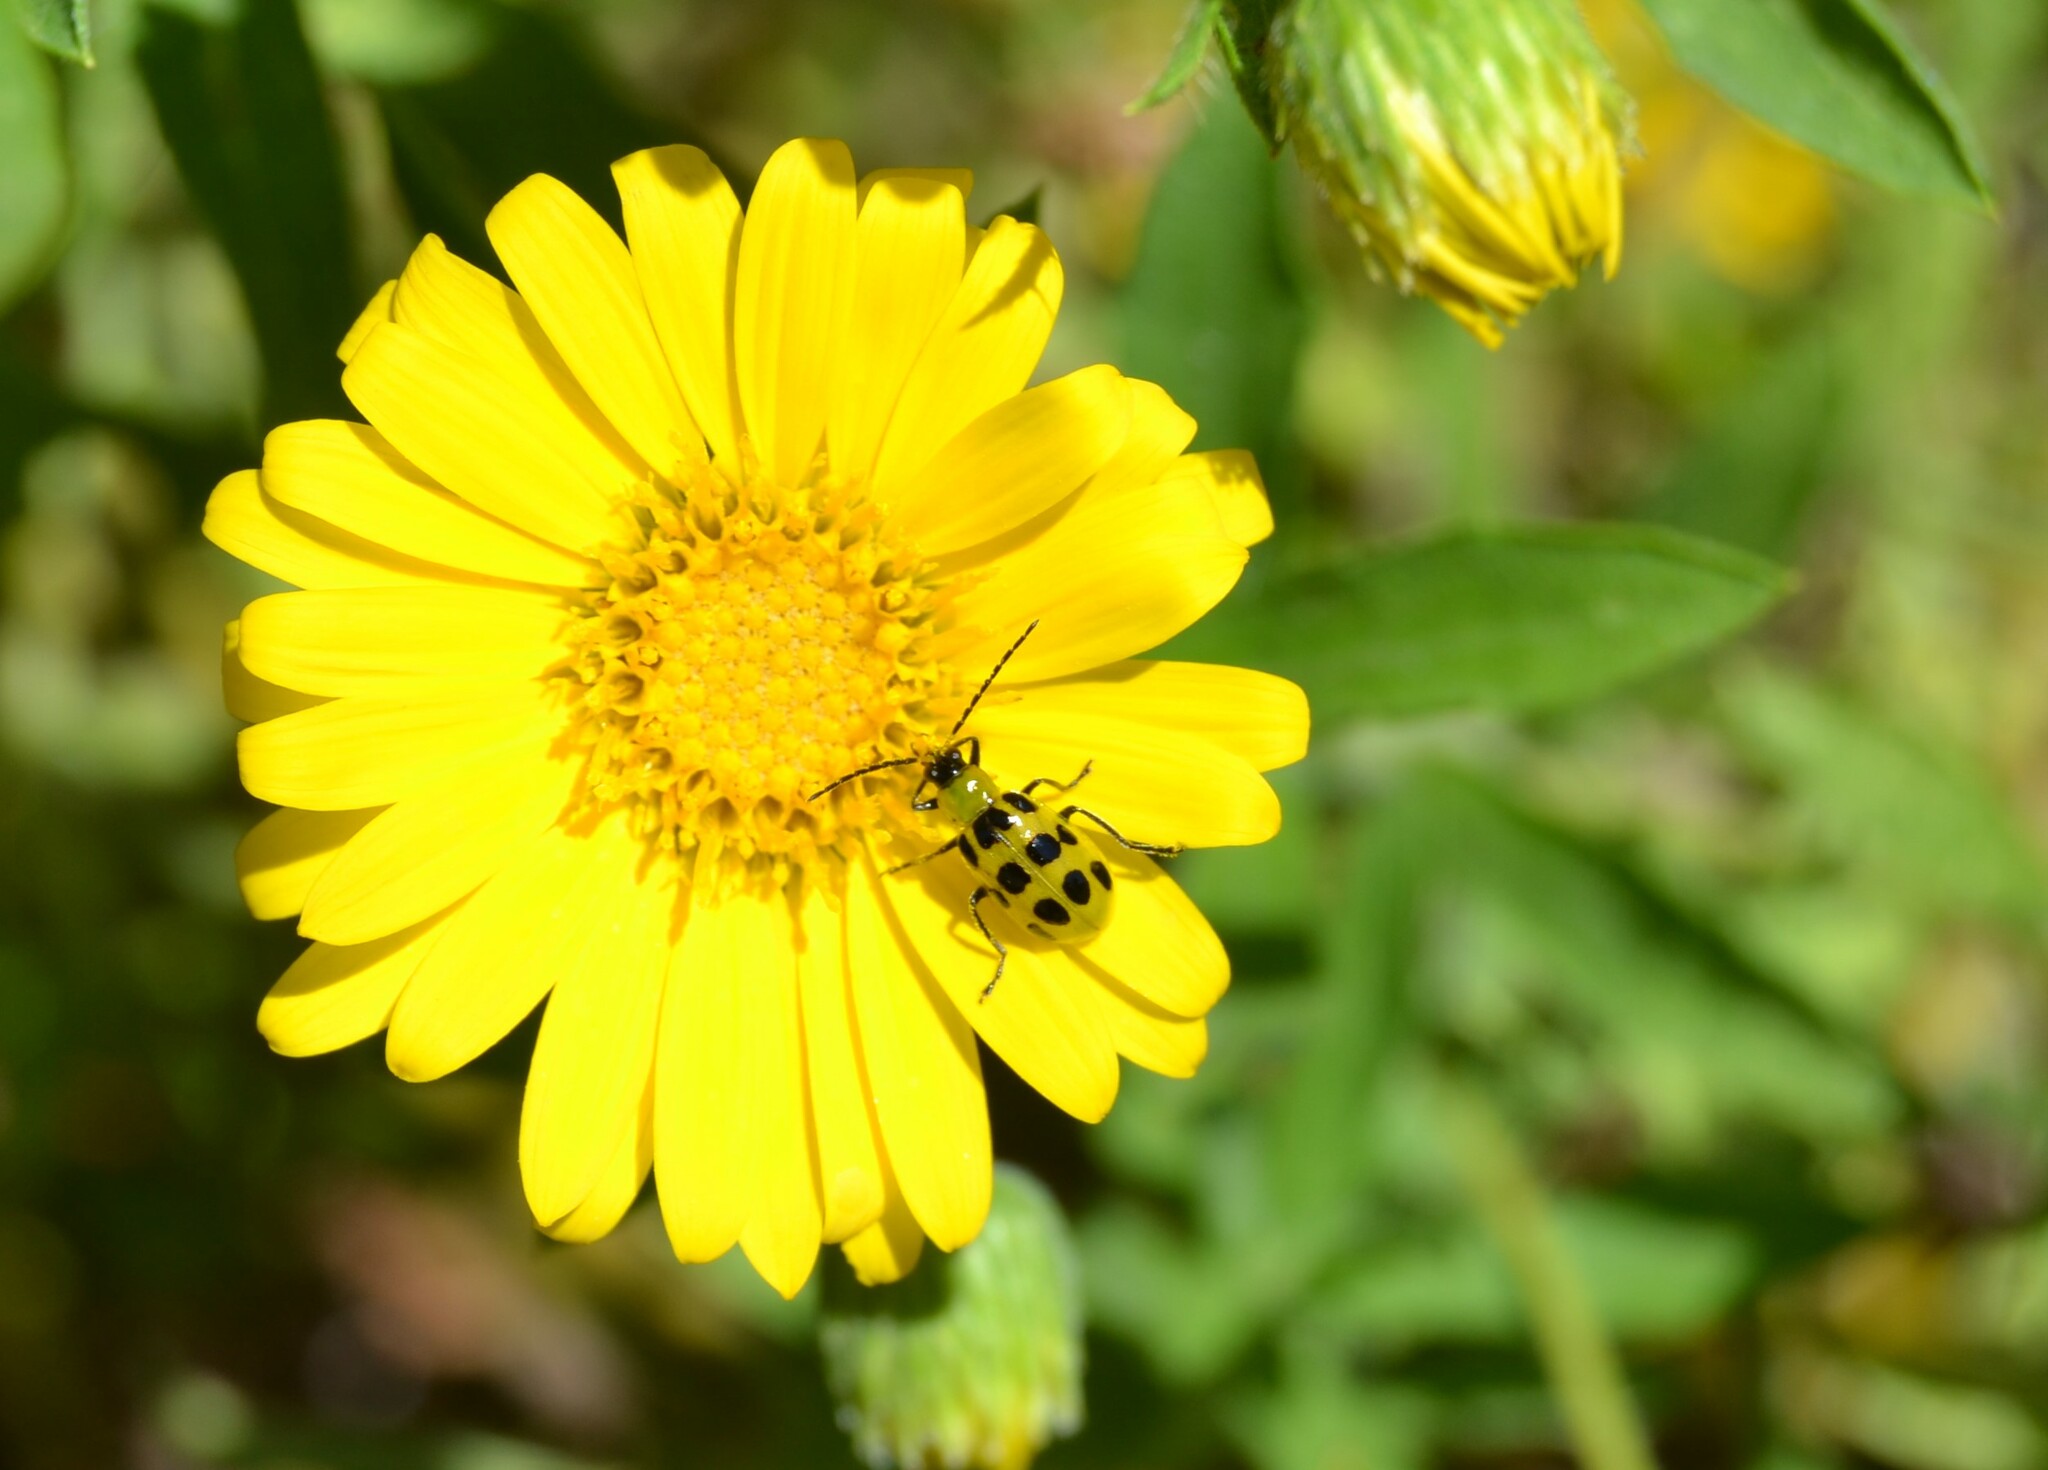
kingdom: Animalia
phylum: Arthropoda
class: Insecta
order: Coleoptera
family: Chrysomelidae
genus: Diabrotica
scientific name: Diabrotica undecimpunctata
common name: Spotted cucumber beetle
